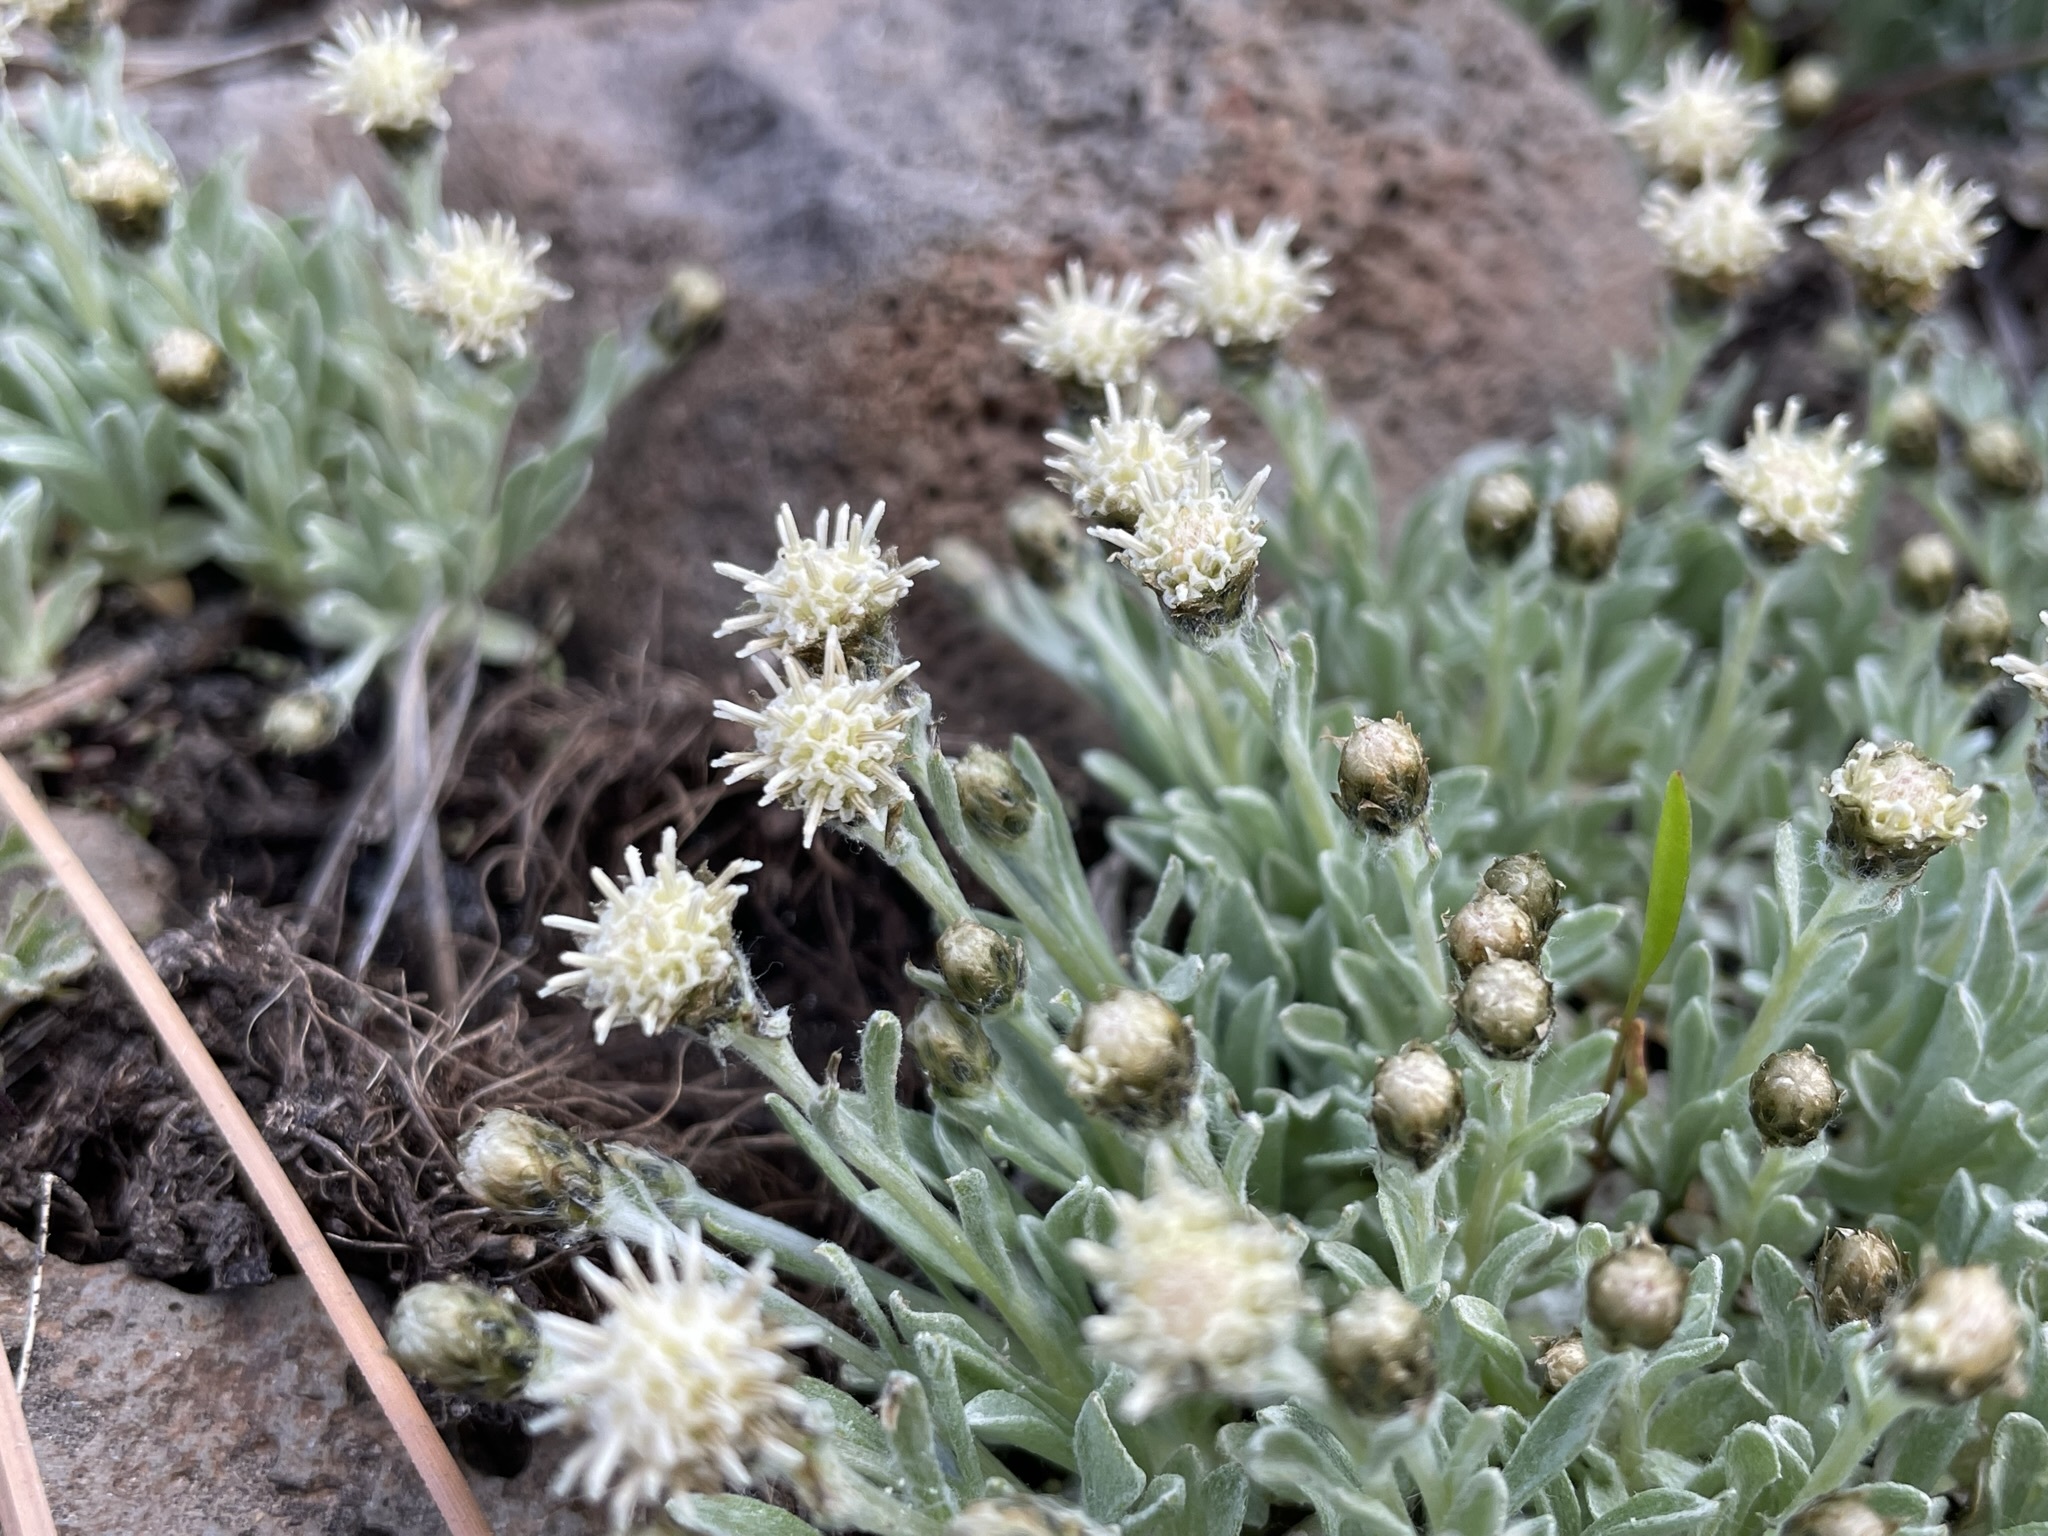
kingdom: Plantae
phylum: Tracheophyta
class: Magnoliopsida
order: Asterales
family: Asteraceae
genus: Antennaria
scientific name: Antennaria dimorpha
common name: Cushion pussytoes
